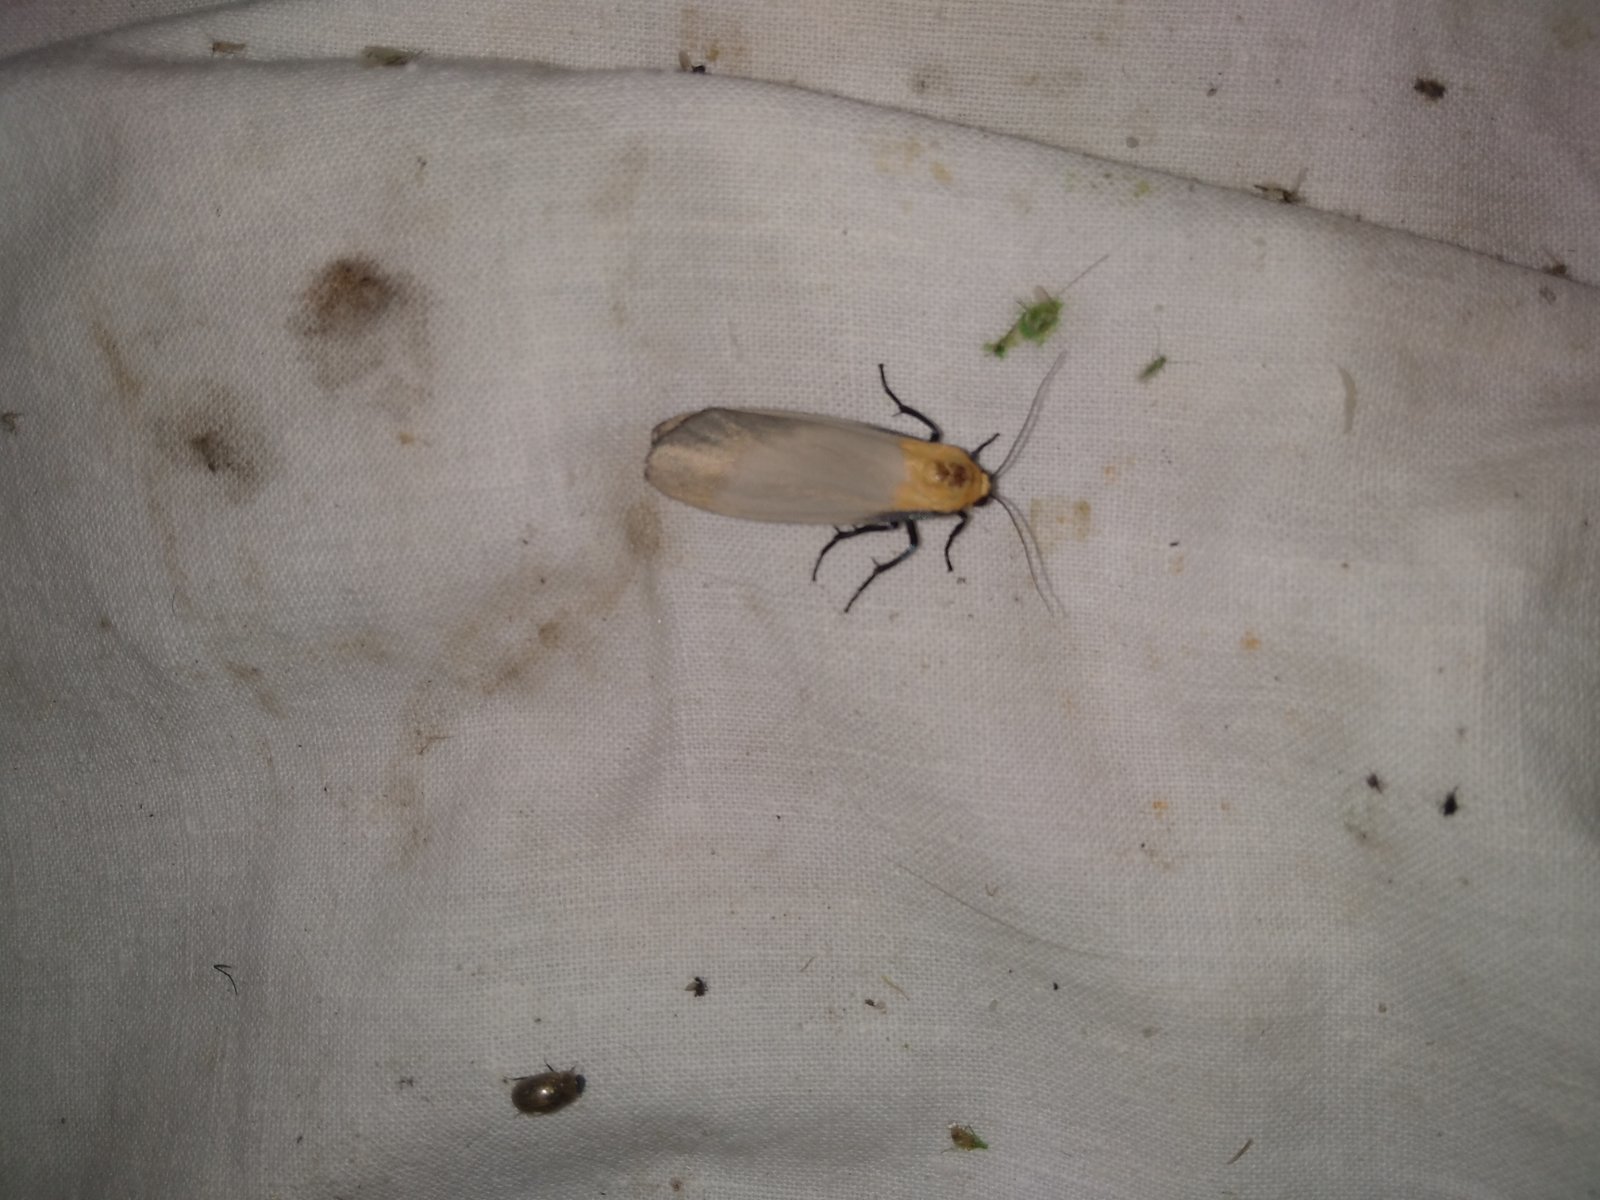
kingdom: Animalia
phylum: Arthropoda
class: Insecta
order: Lepidoptera
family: Erebidae
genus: Lithosia
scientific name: Lithosia quadra
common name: Four-spotted footman
